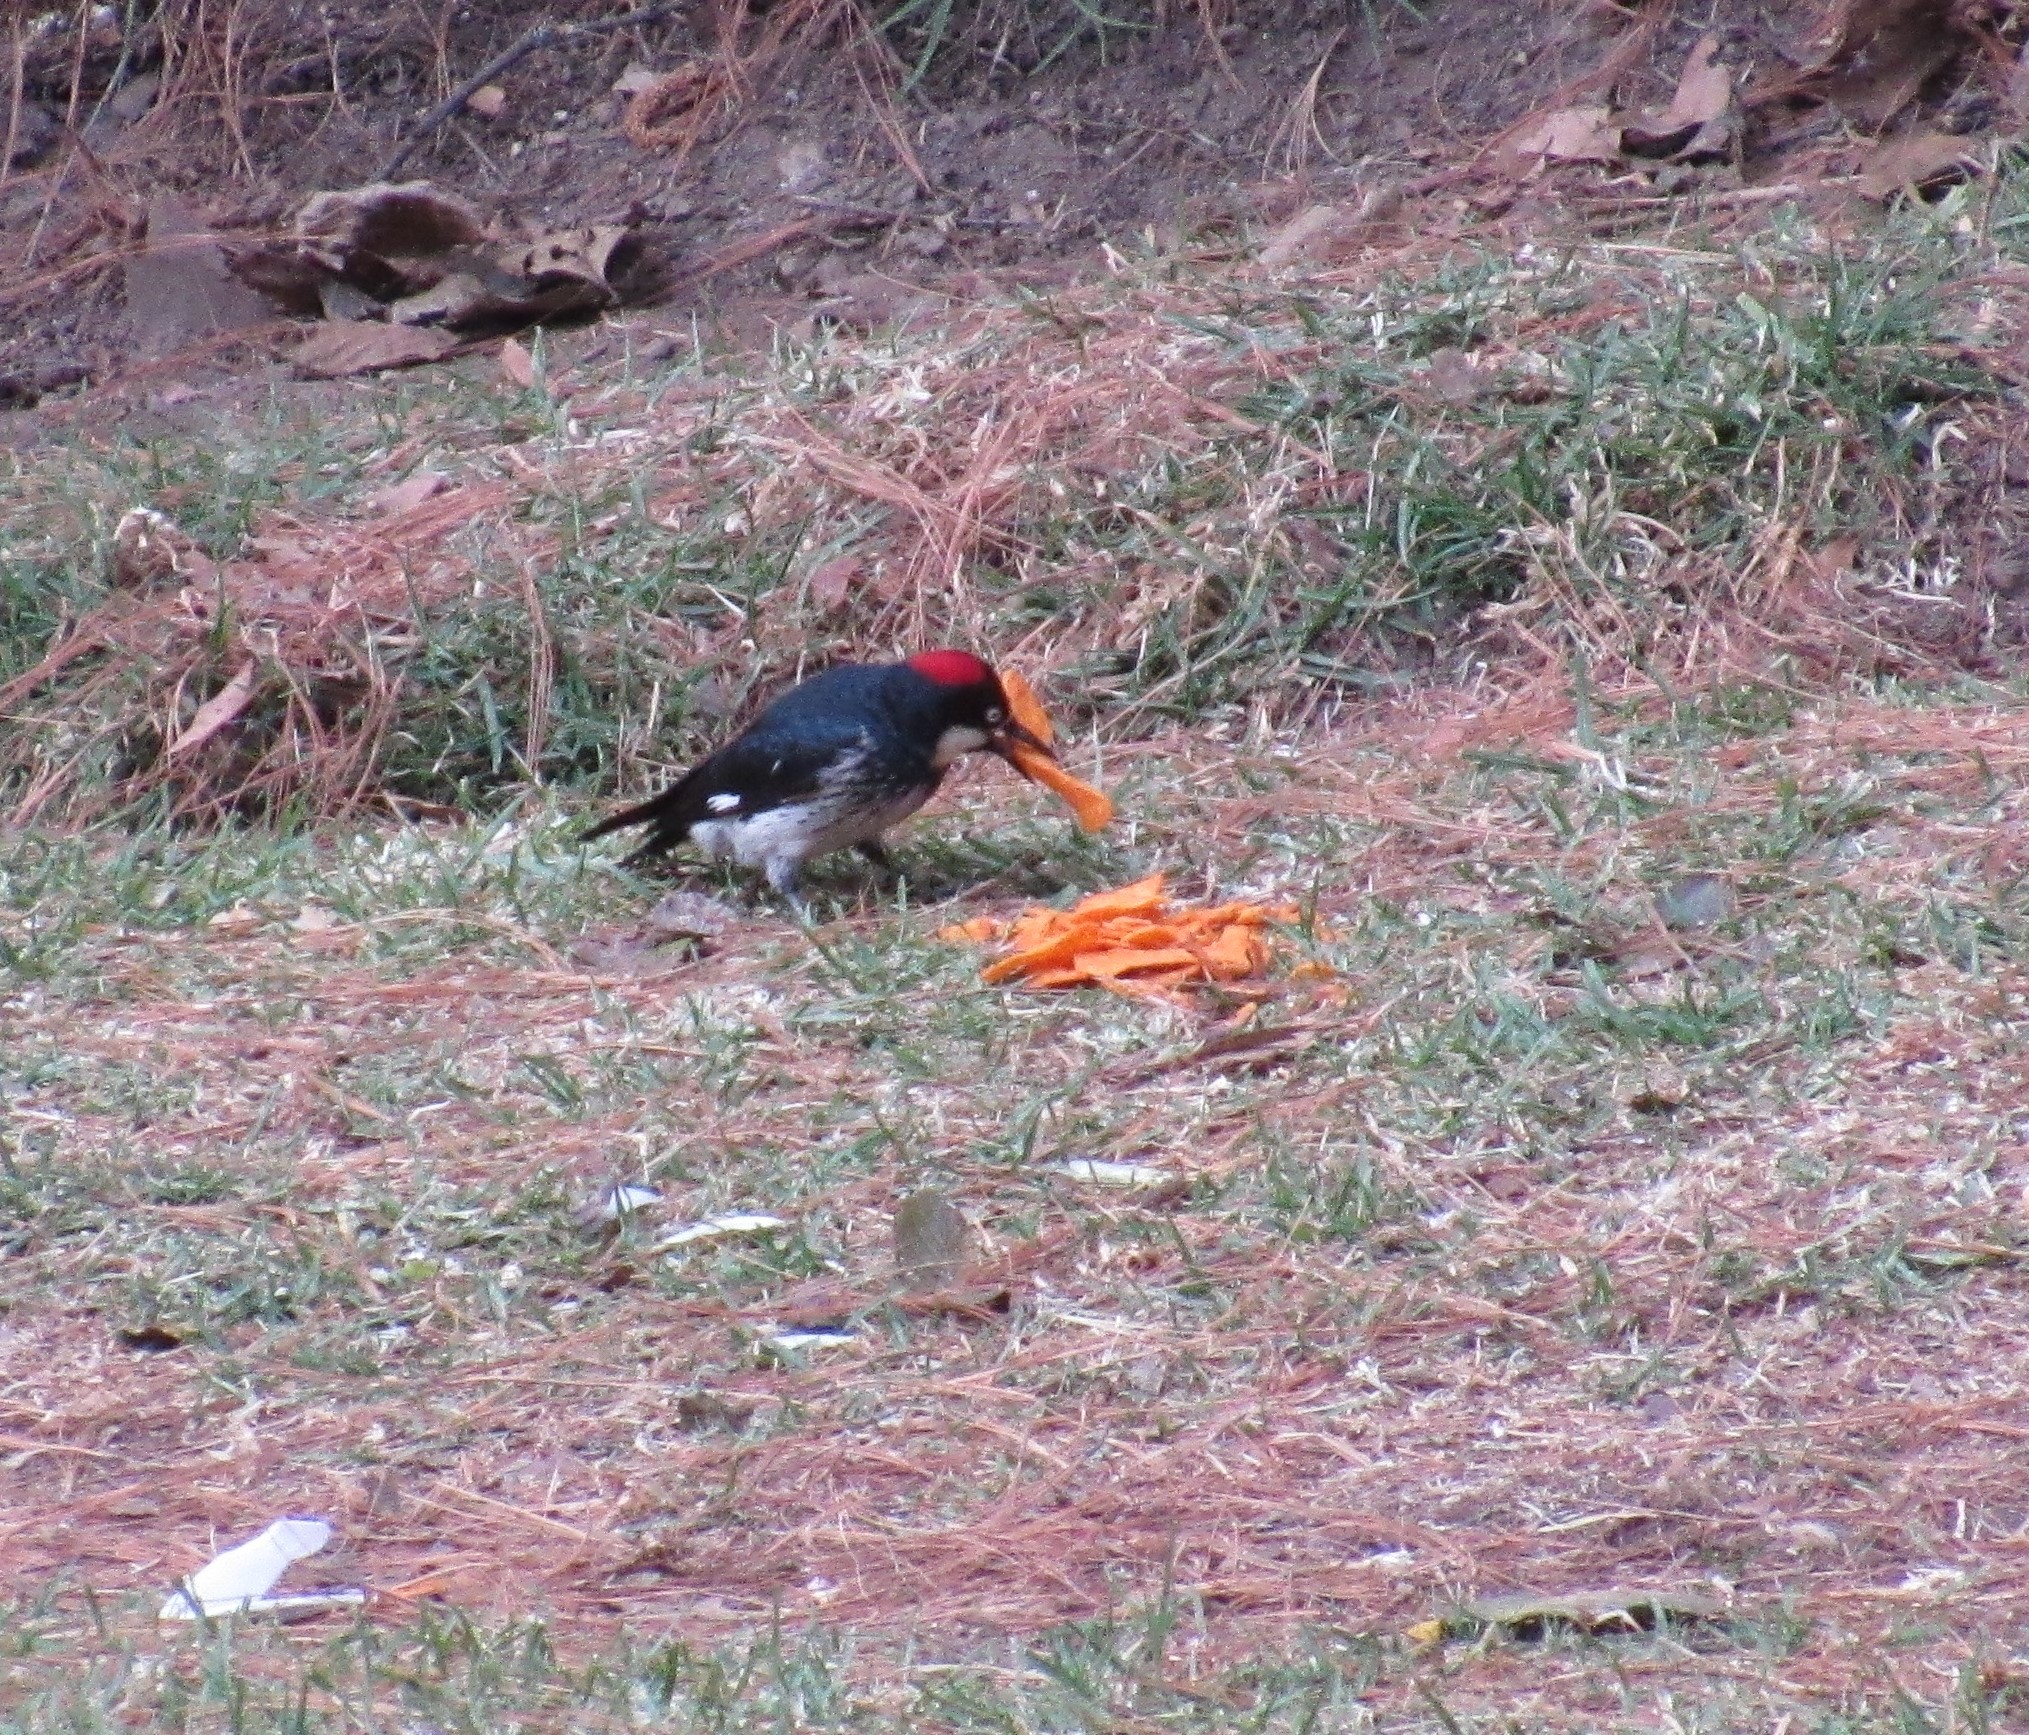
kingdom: Animalia
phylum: Chordata
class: Aves
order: Piciformes
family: Picidae
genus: Melanerpes
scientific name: Melanerpes formicivorus
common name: Acorn woodpecker
